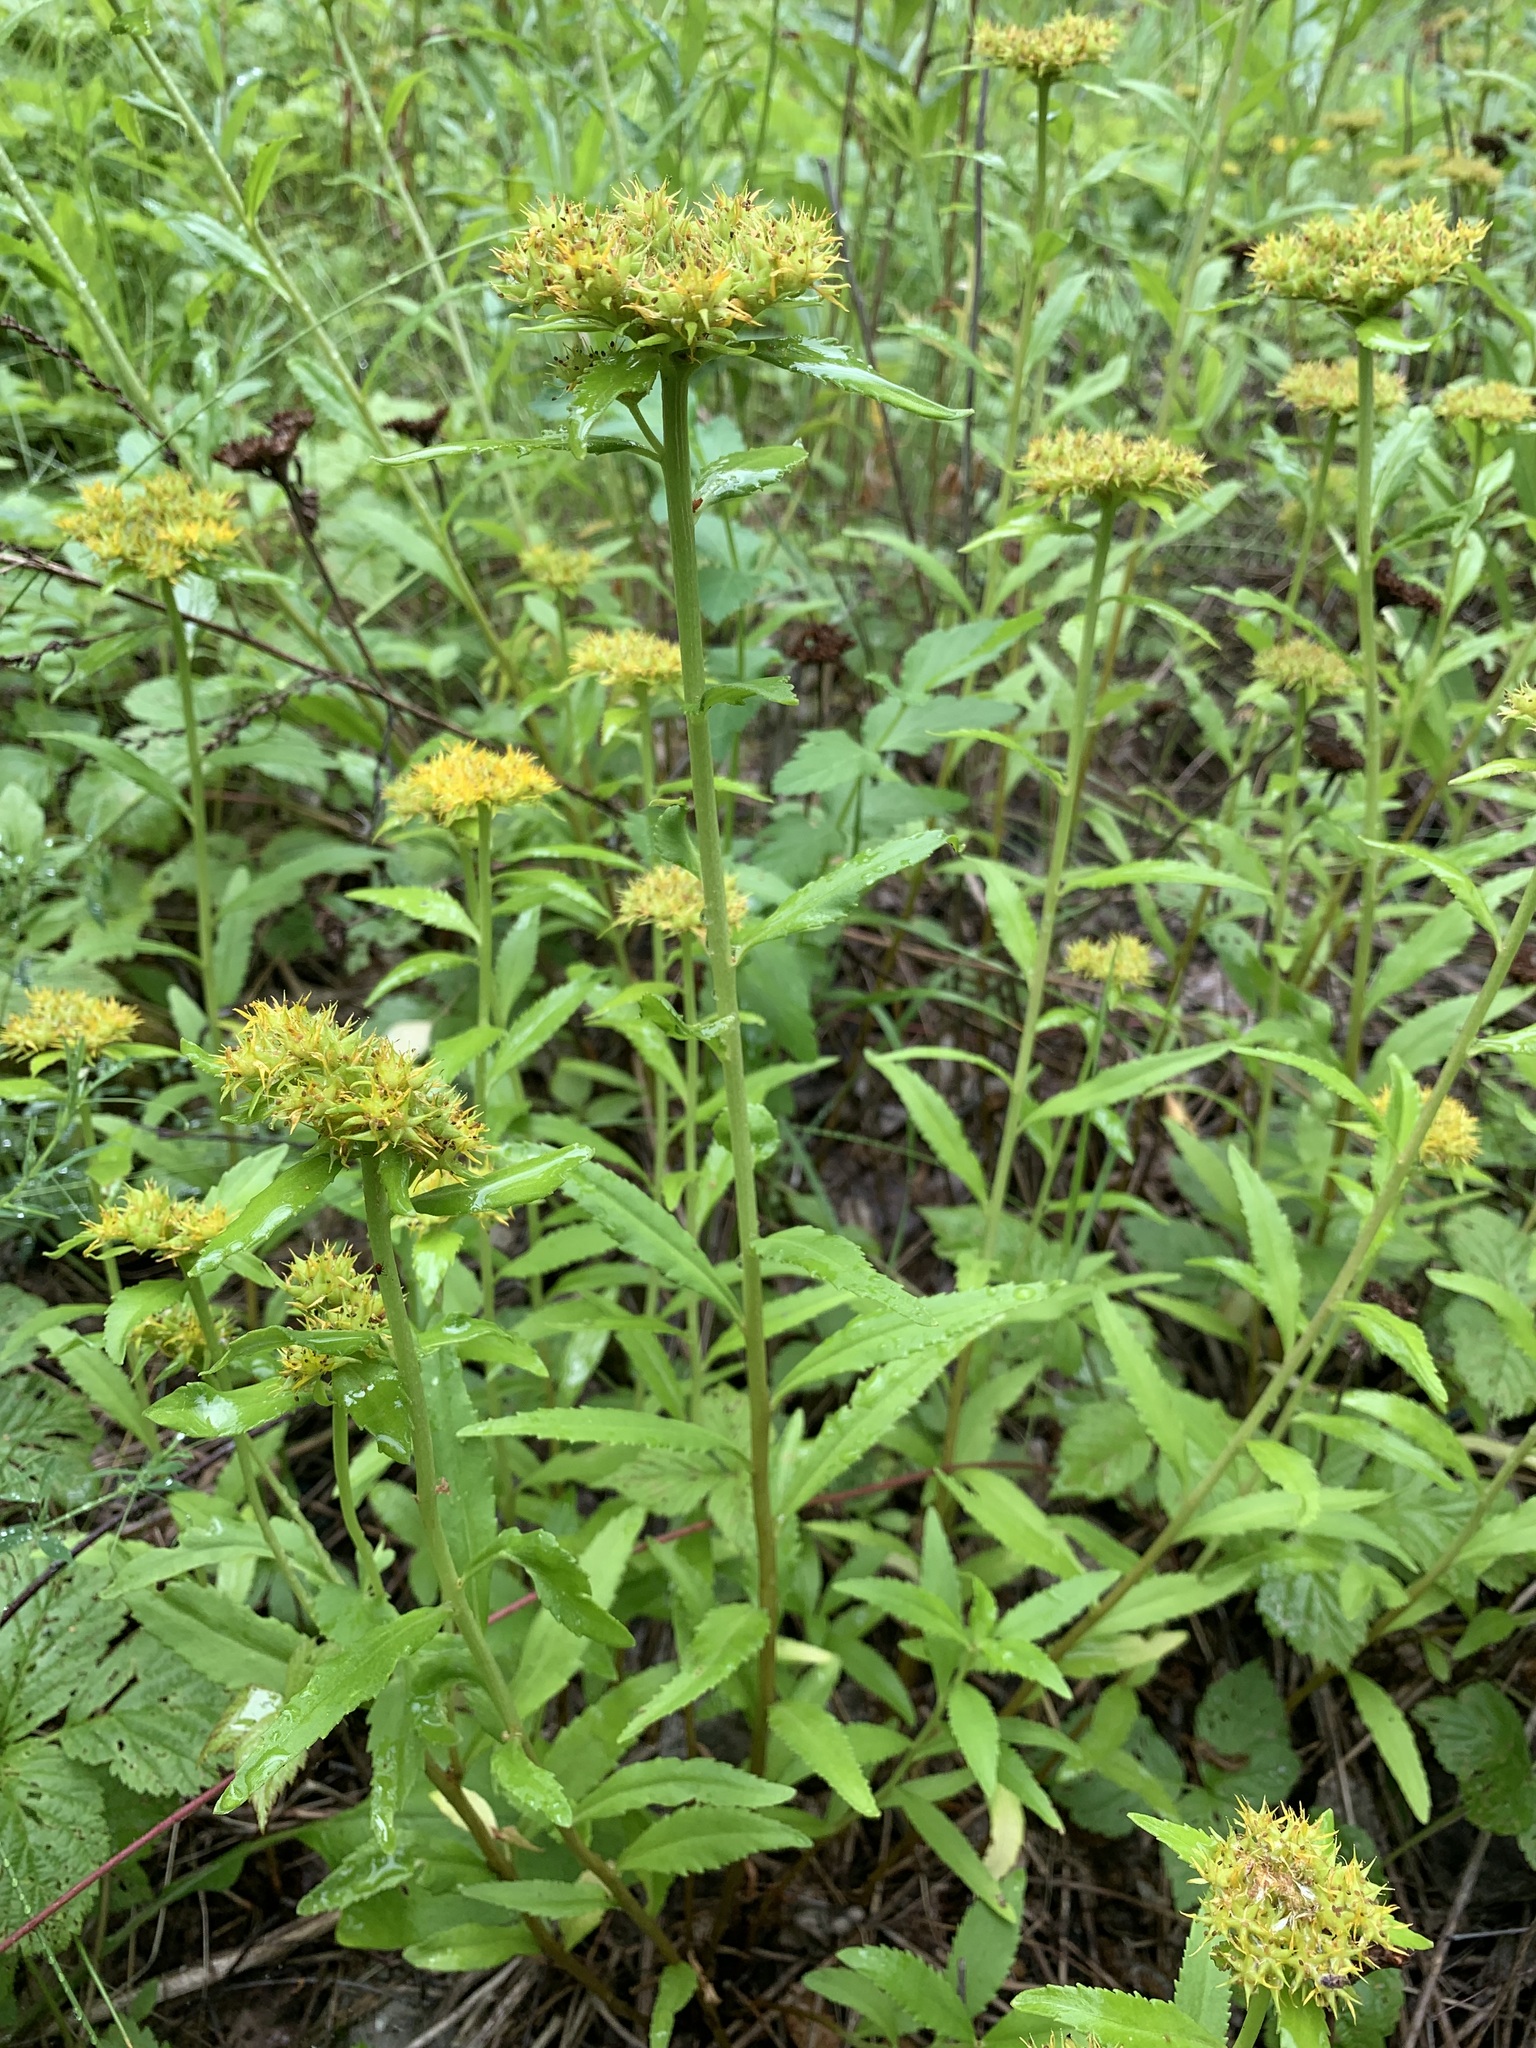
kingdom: Plantae
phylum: Tracheophyta
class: Magnoliopsida
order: Saxifragales
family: Crassulaceae
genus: Phedimus
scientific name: Phedimus aizoon
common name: Orpin aizoon
